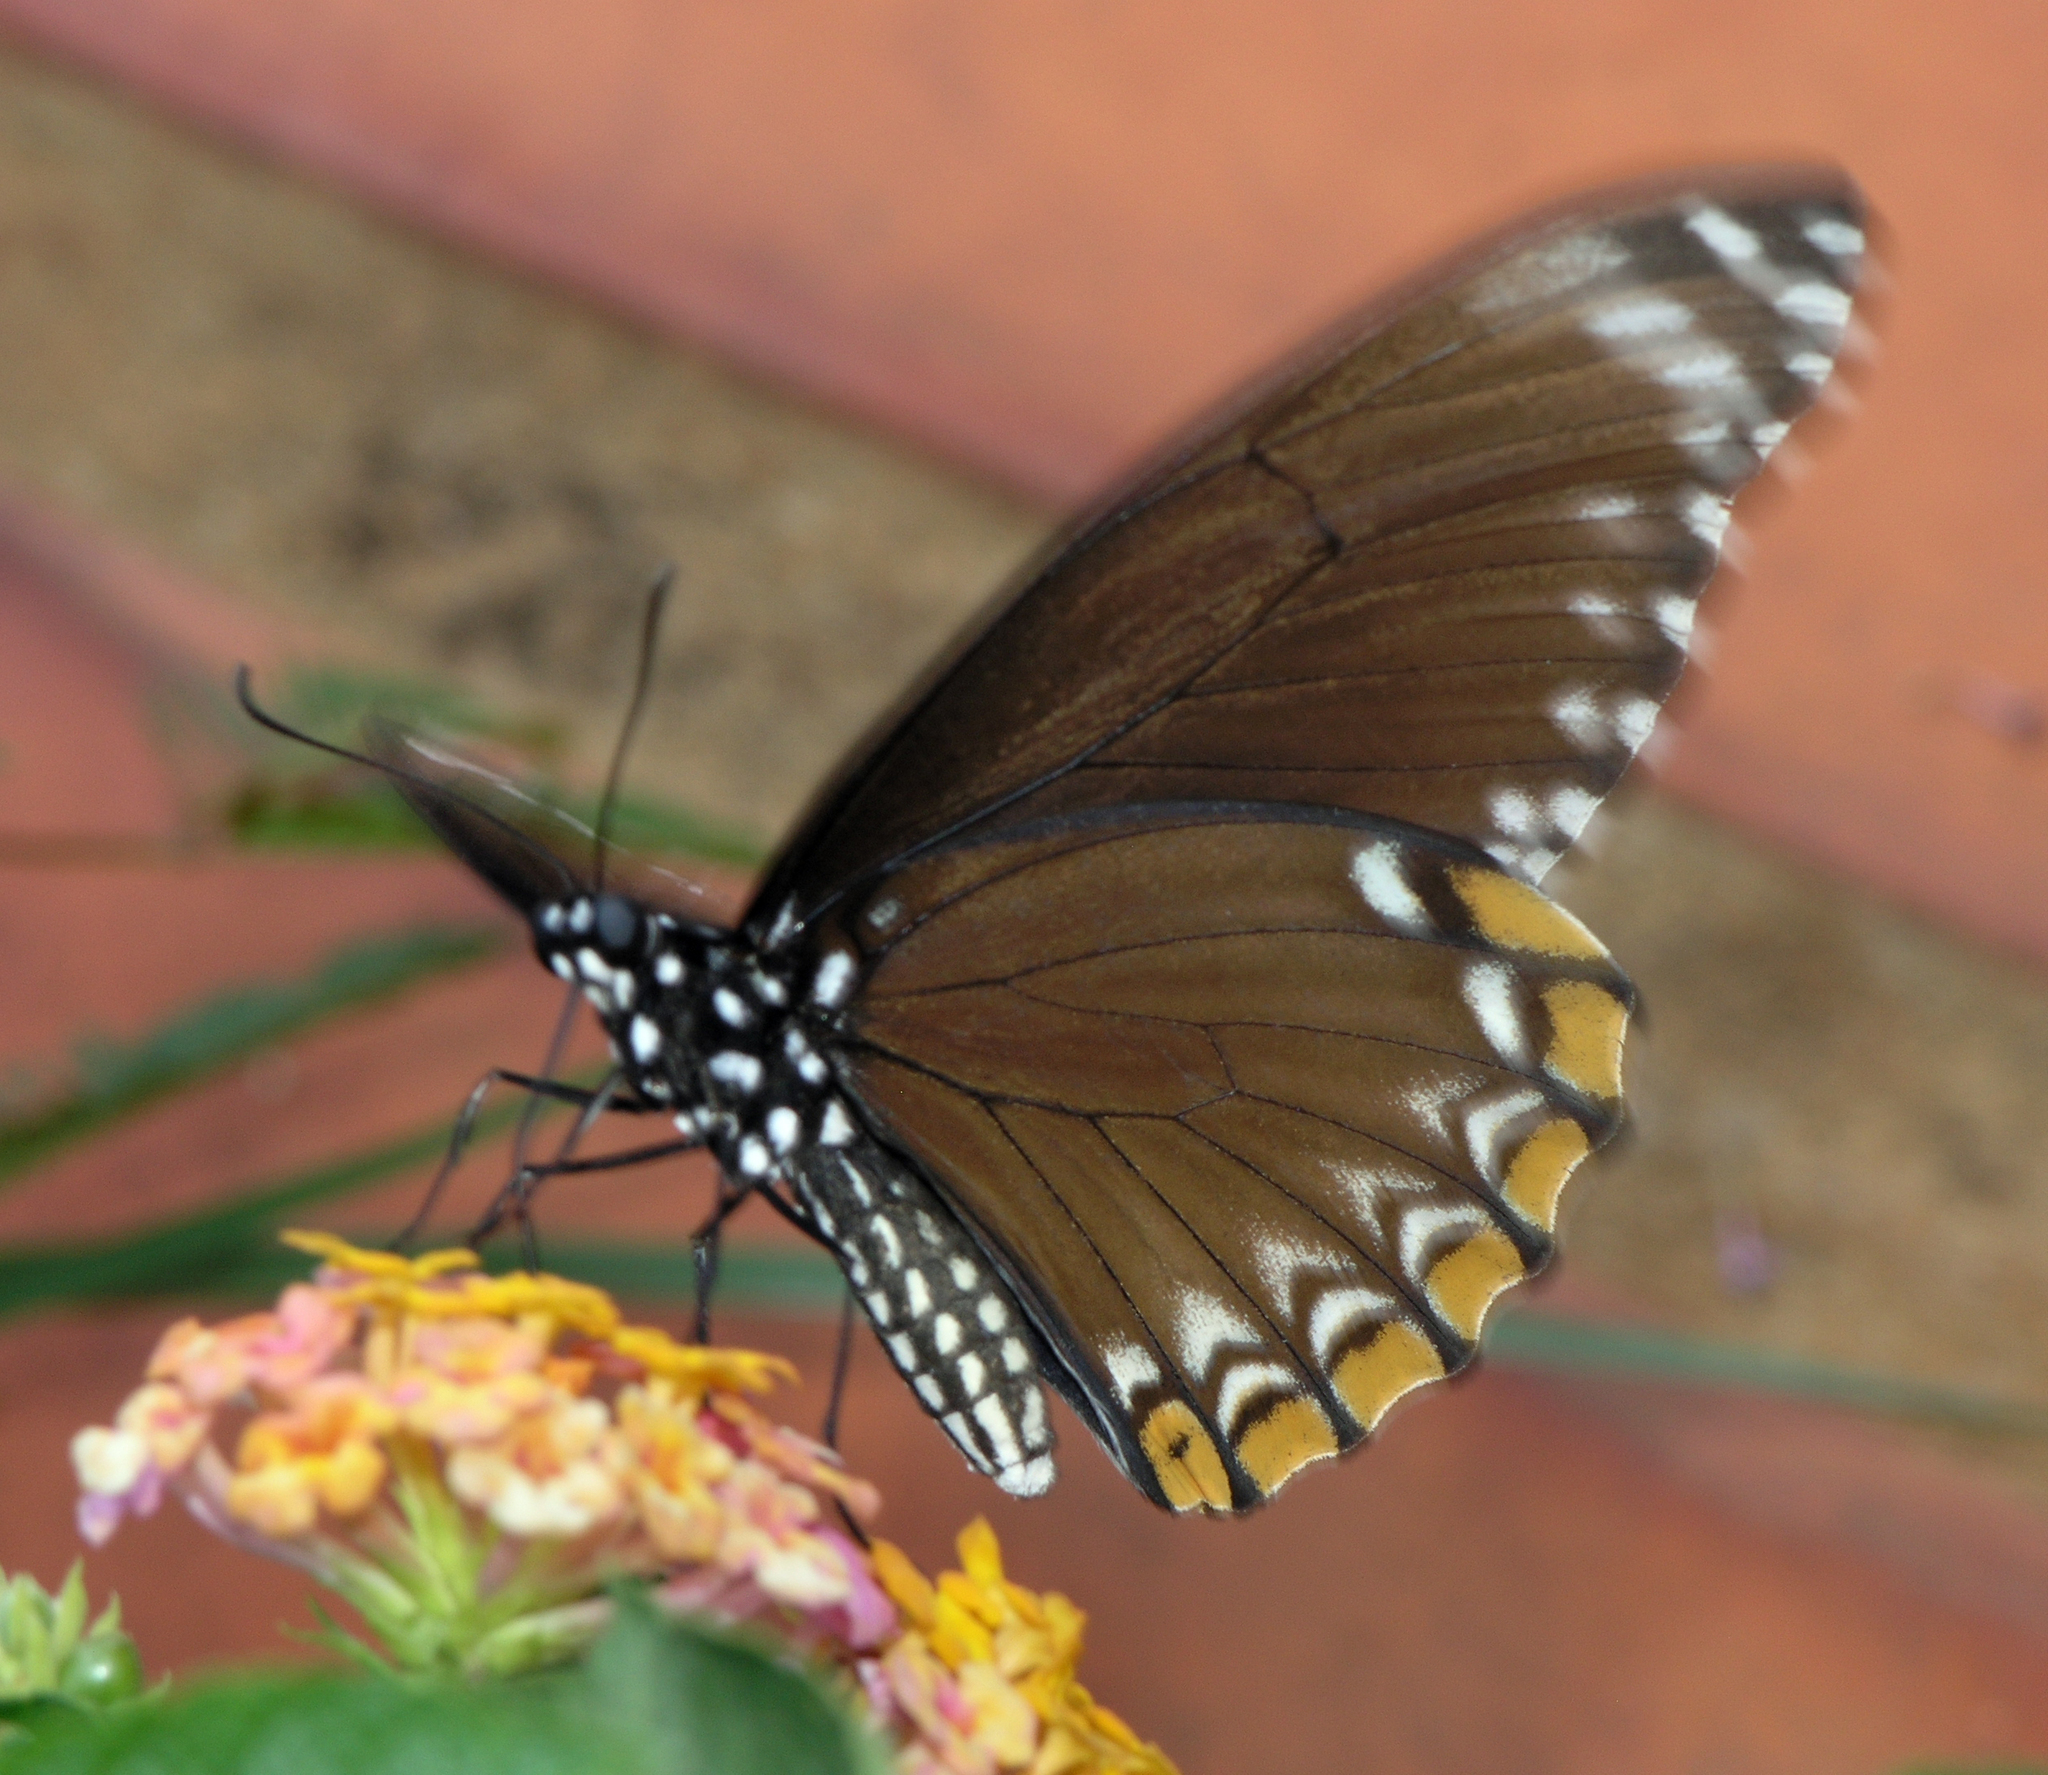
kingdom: Animalia
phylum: Arthropoda
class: Insecta
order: Lepidoptera
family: Papilionidae
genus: Chilasa
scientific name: Chilasa clytia
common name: Common mime
